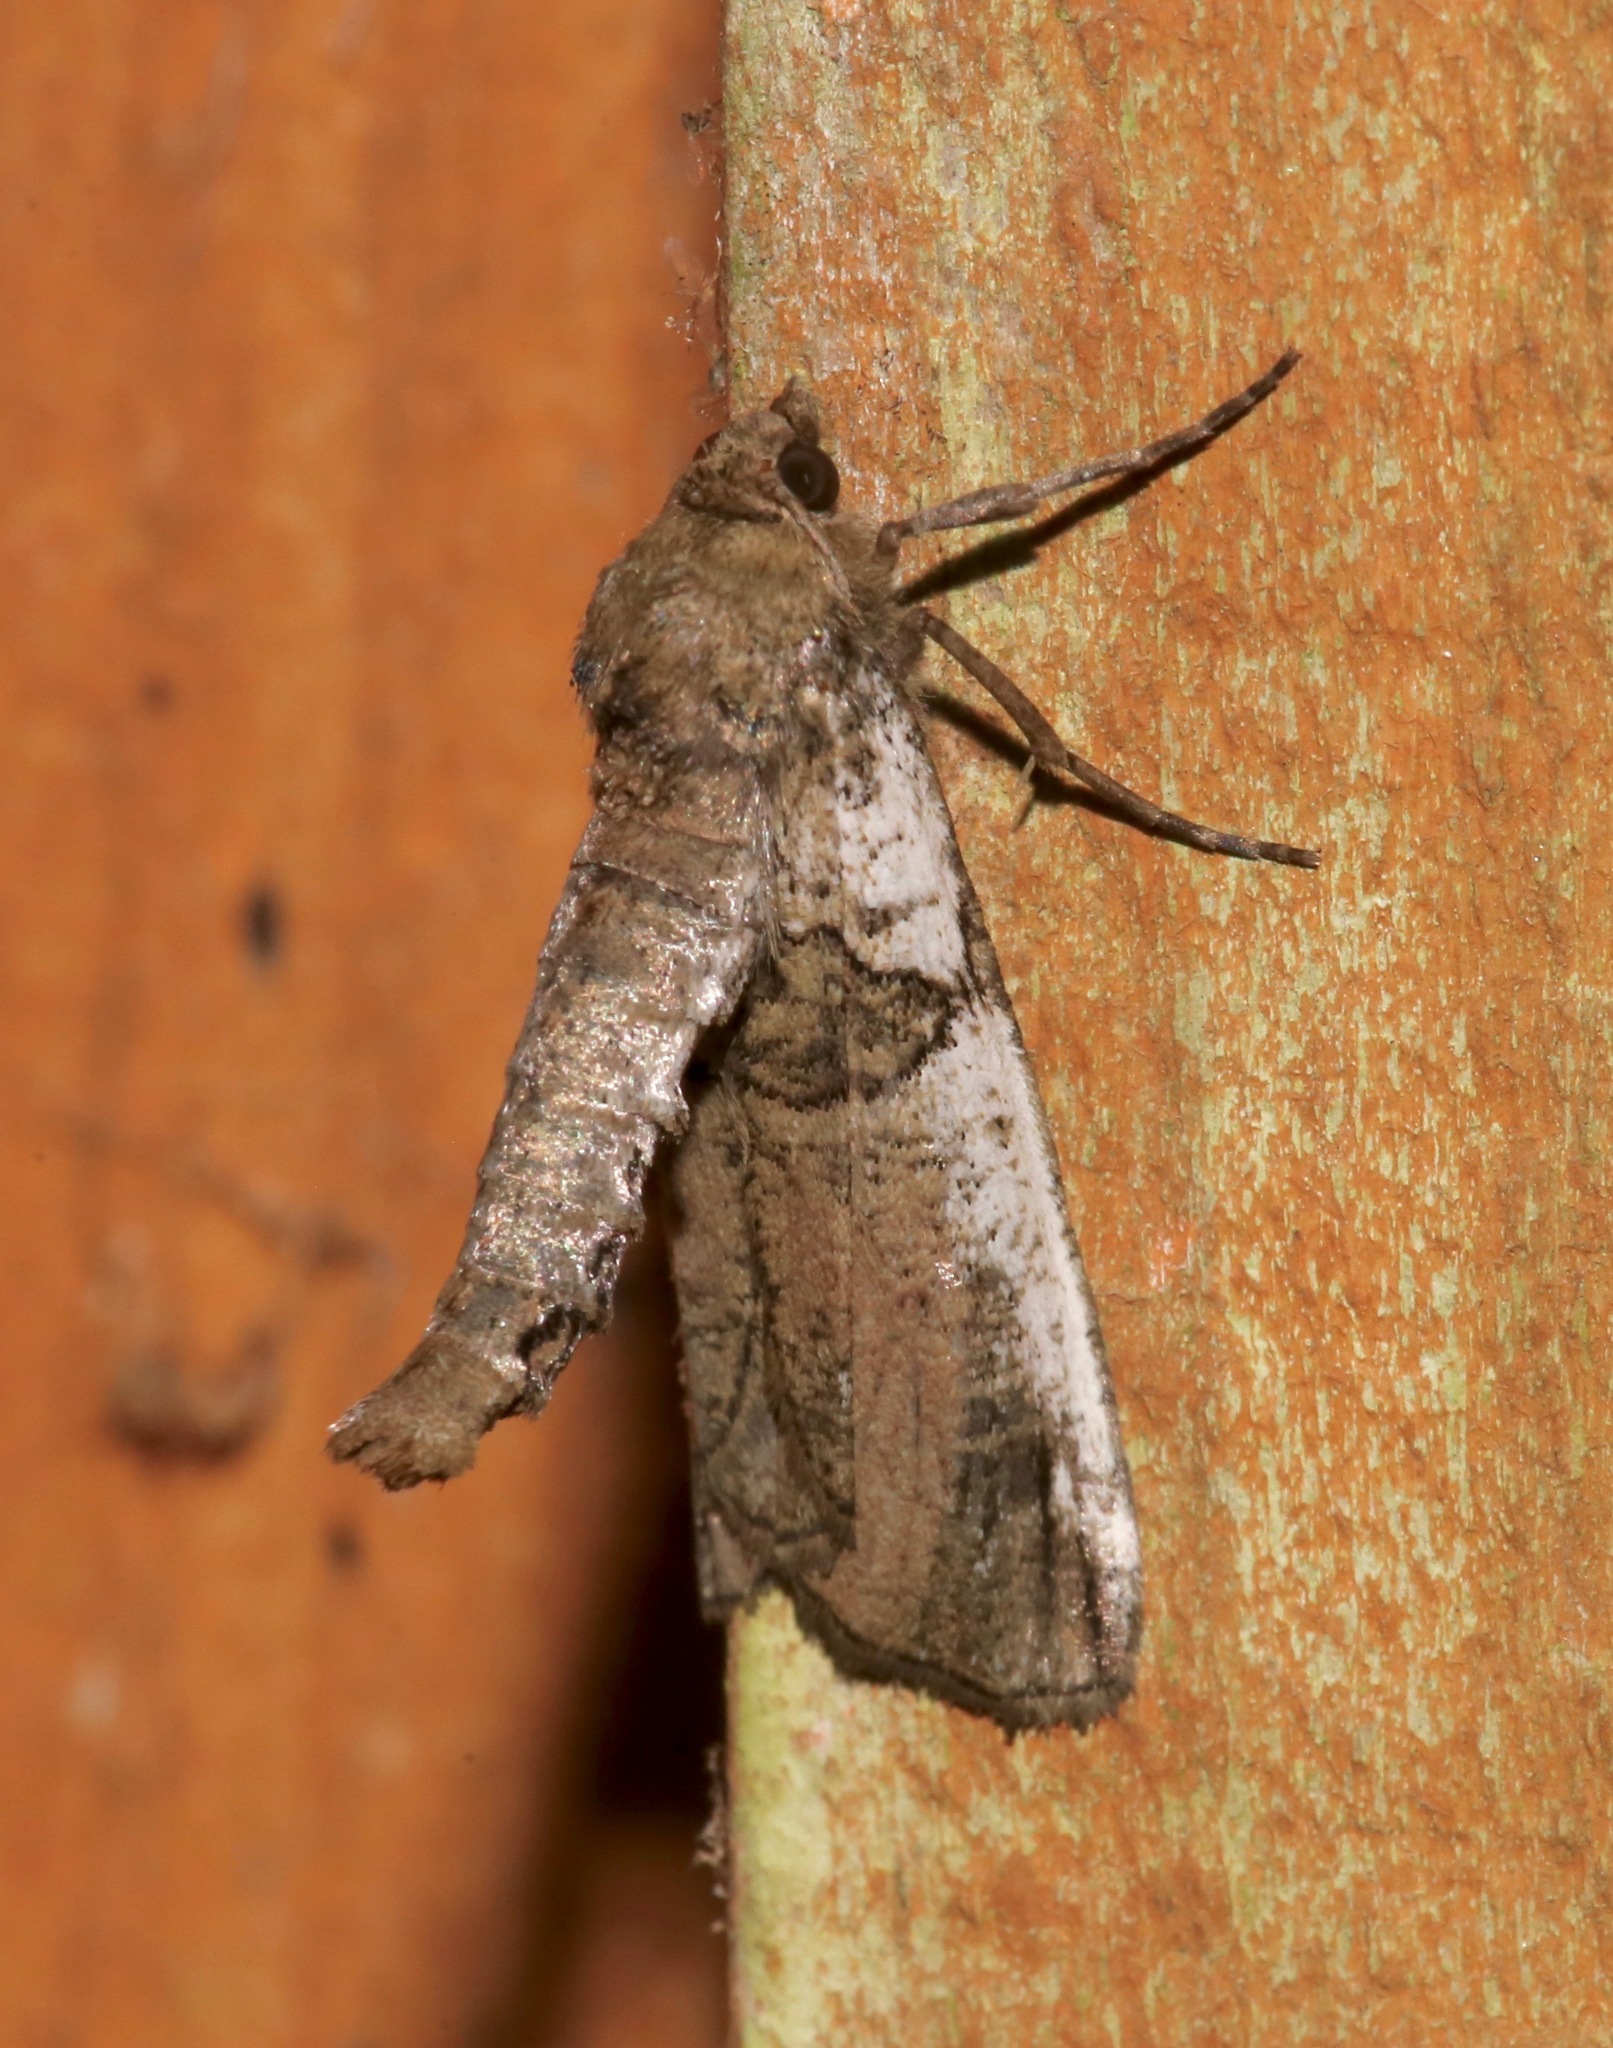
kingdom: Animalia
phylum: Arthropoda
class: Insecta
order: Lepidoptera
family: Geometridae
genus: Ceratonyx
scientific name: Ceratonyx satanaria
